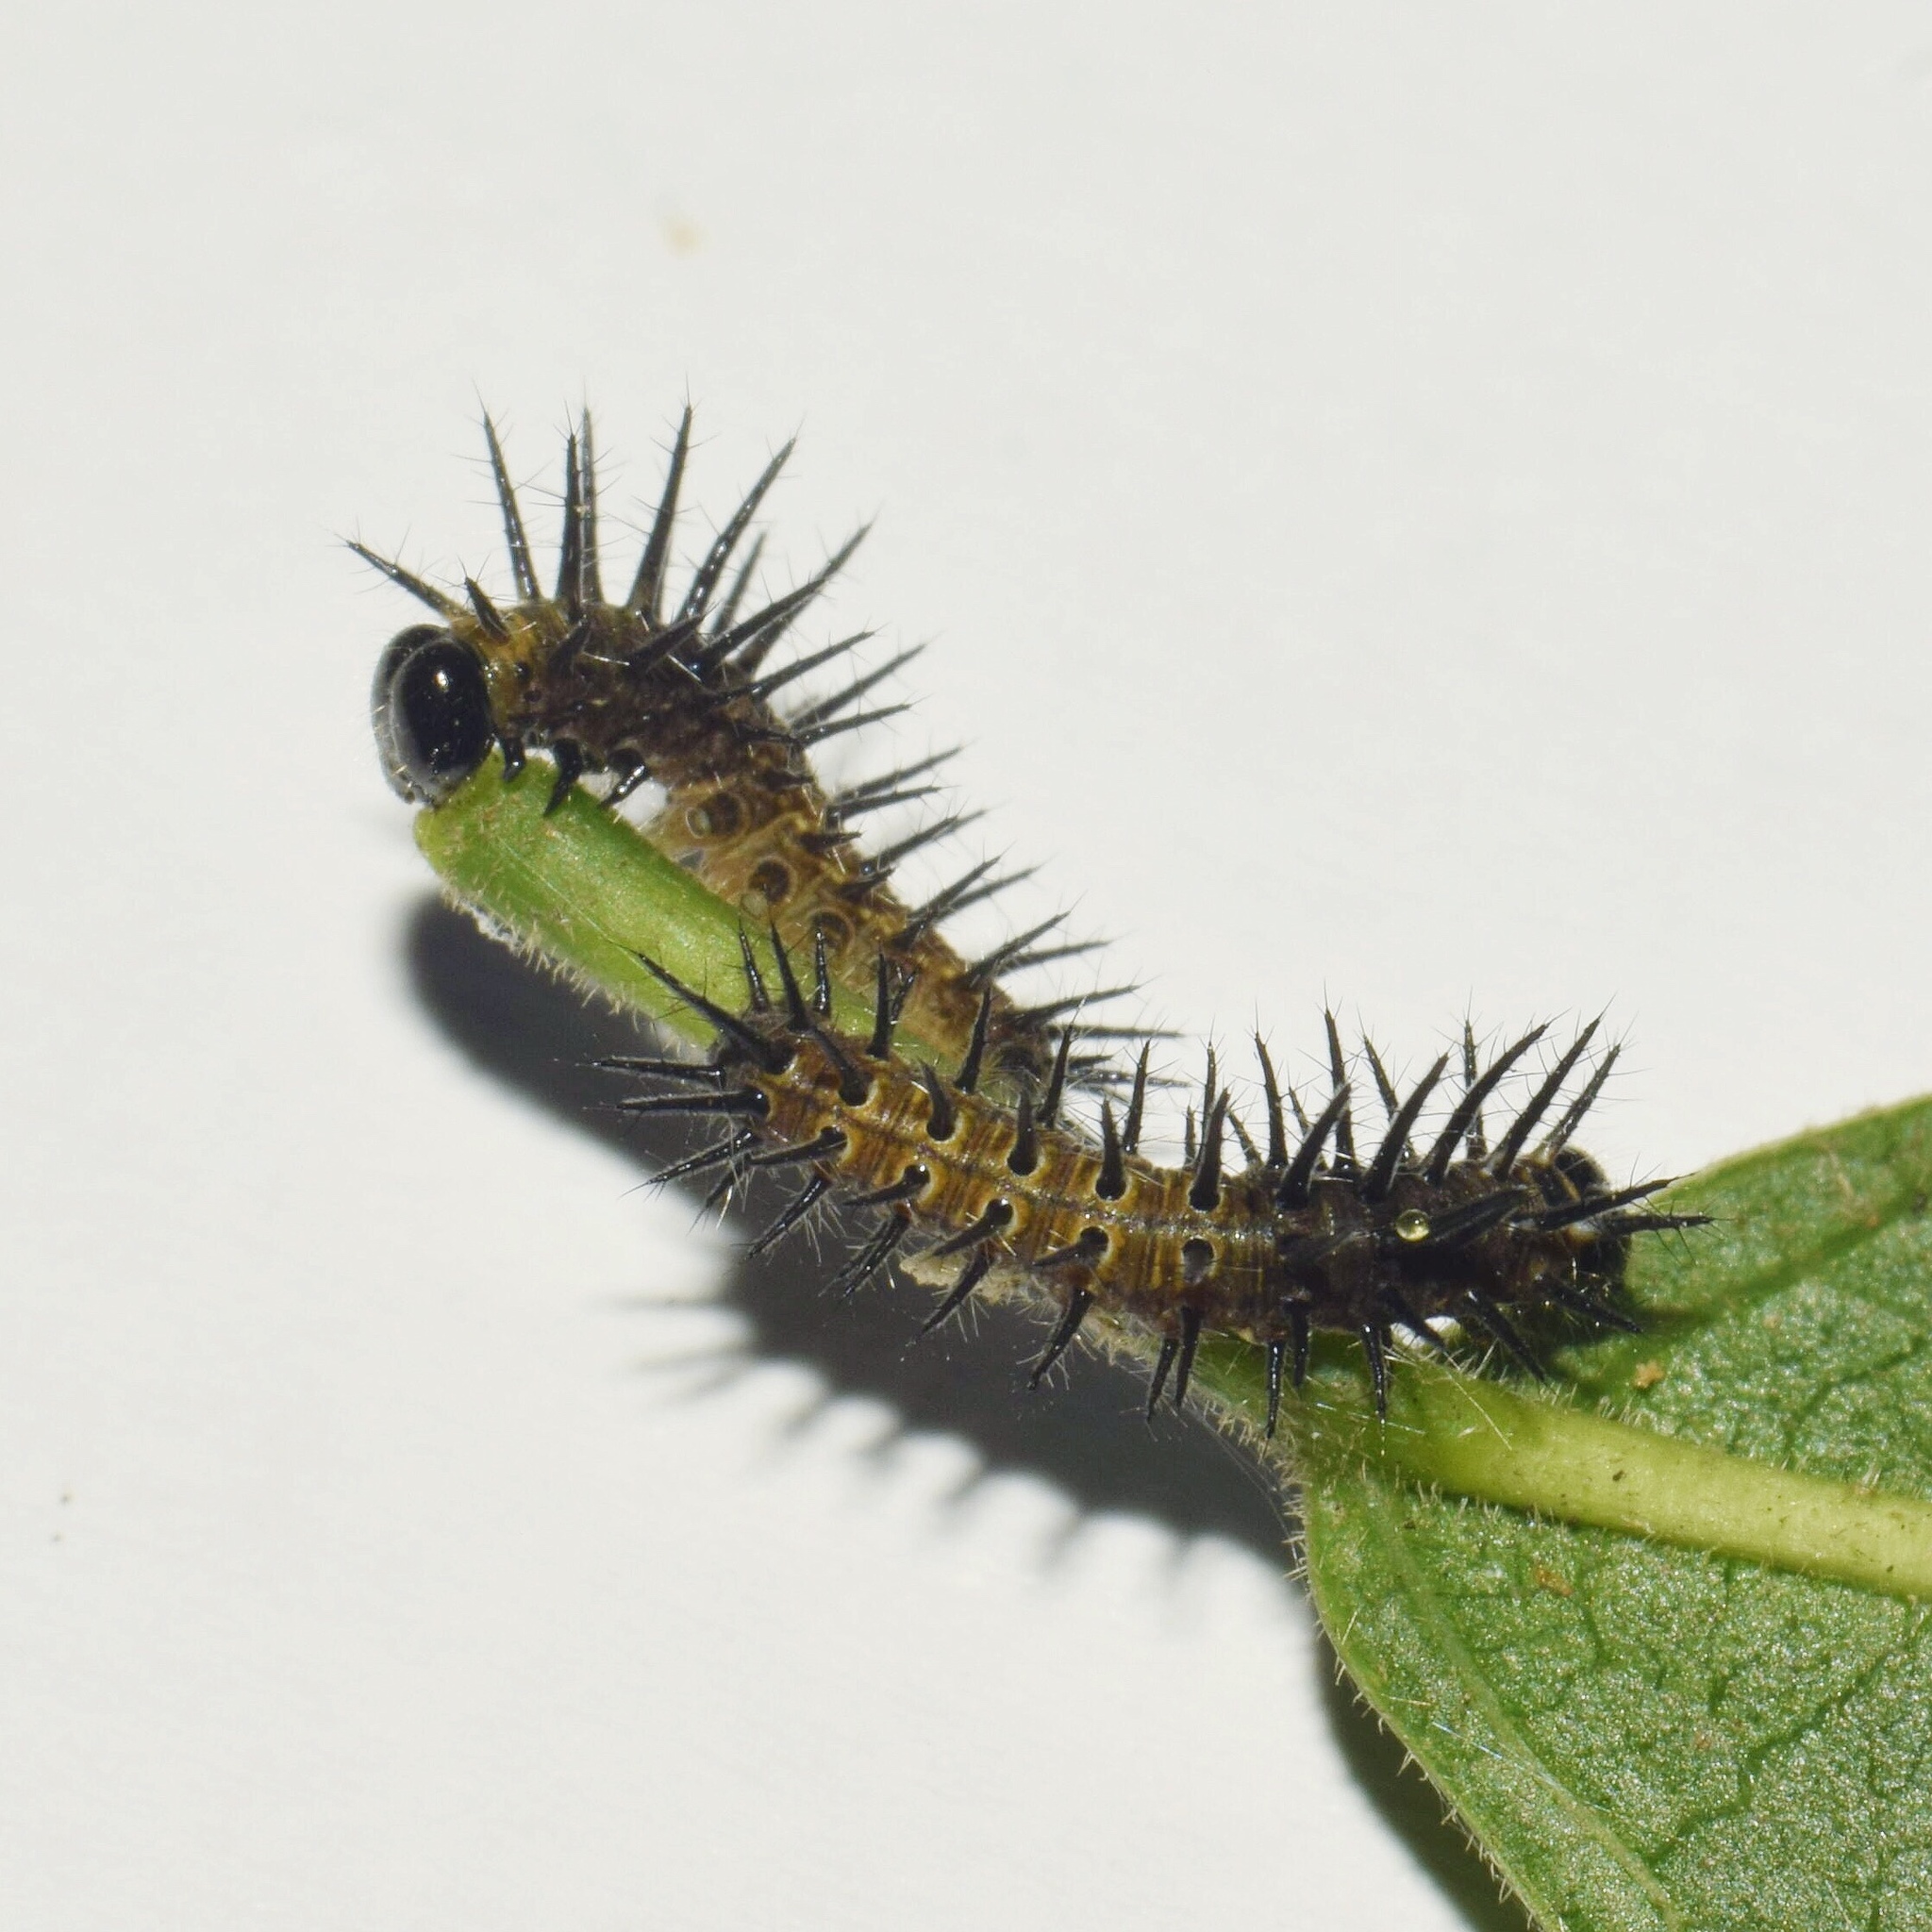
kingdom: Animalia
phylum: Arthropoda
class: Insecta
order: Lepidoptera
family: Nymphalidae
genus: Rubraea
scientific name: Rubraea
